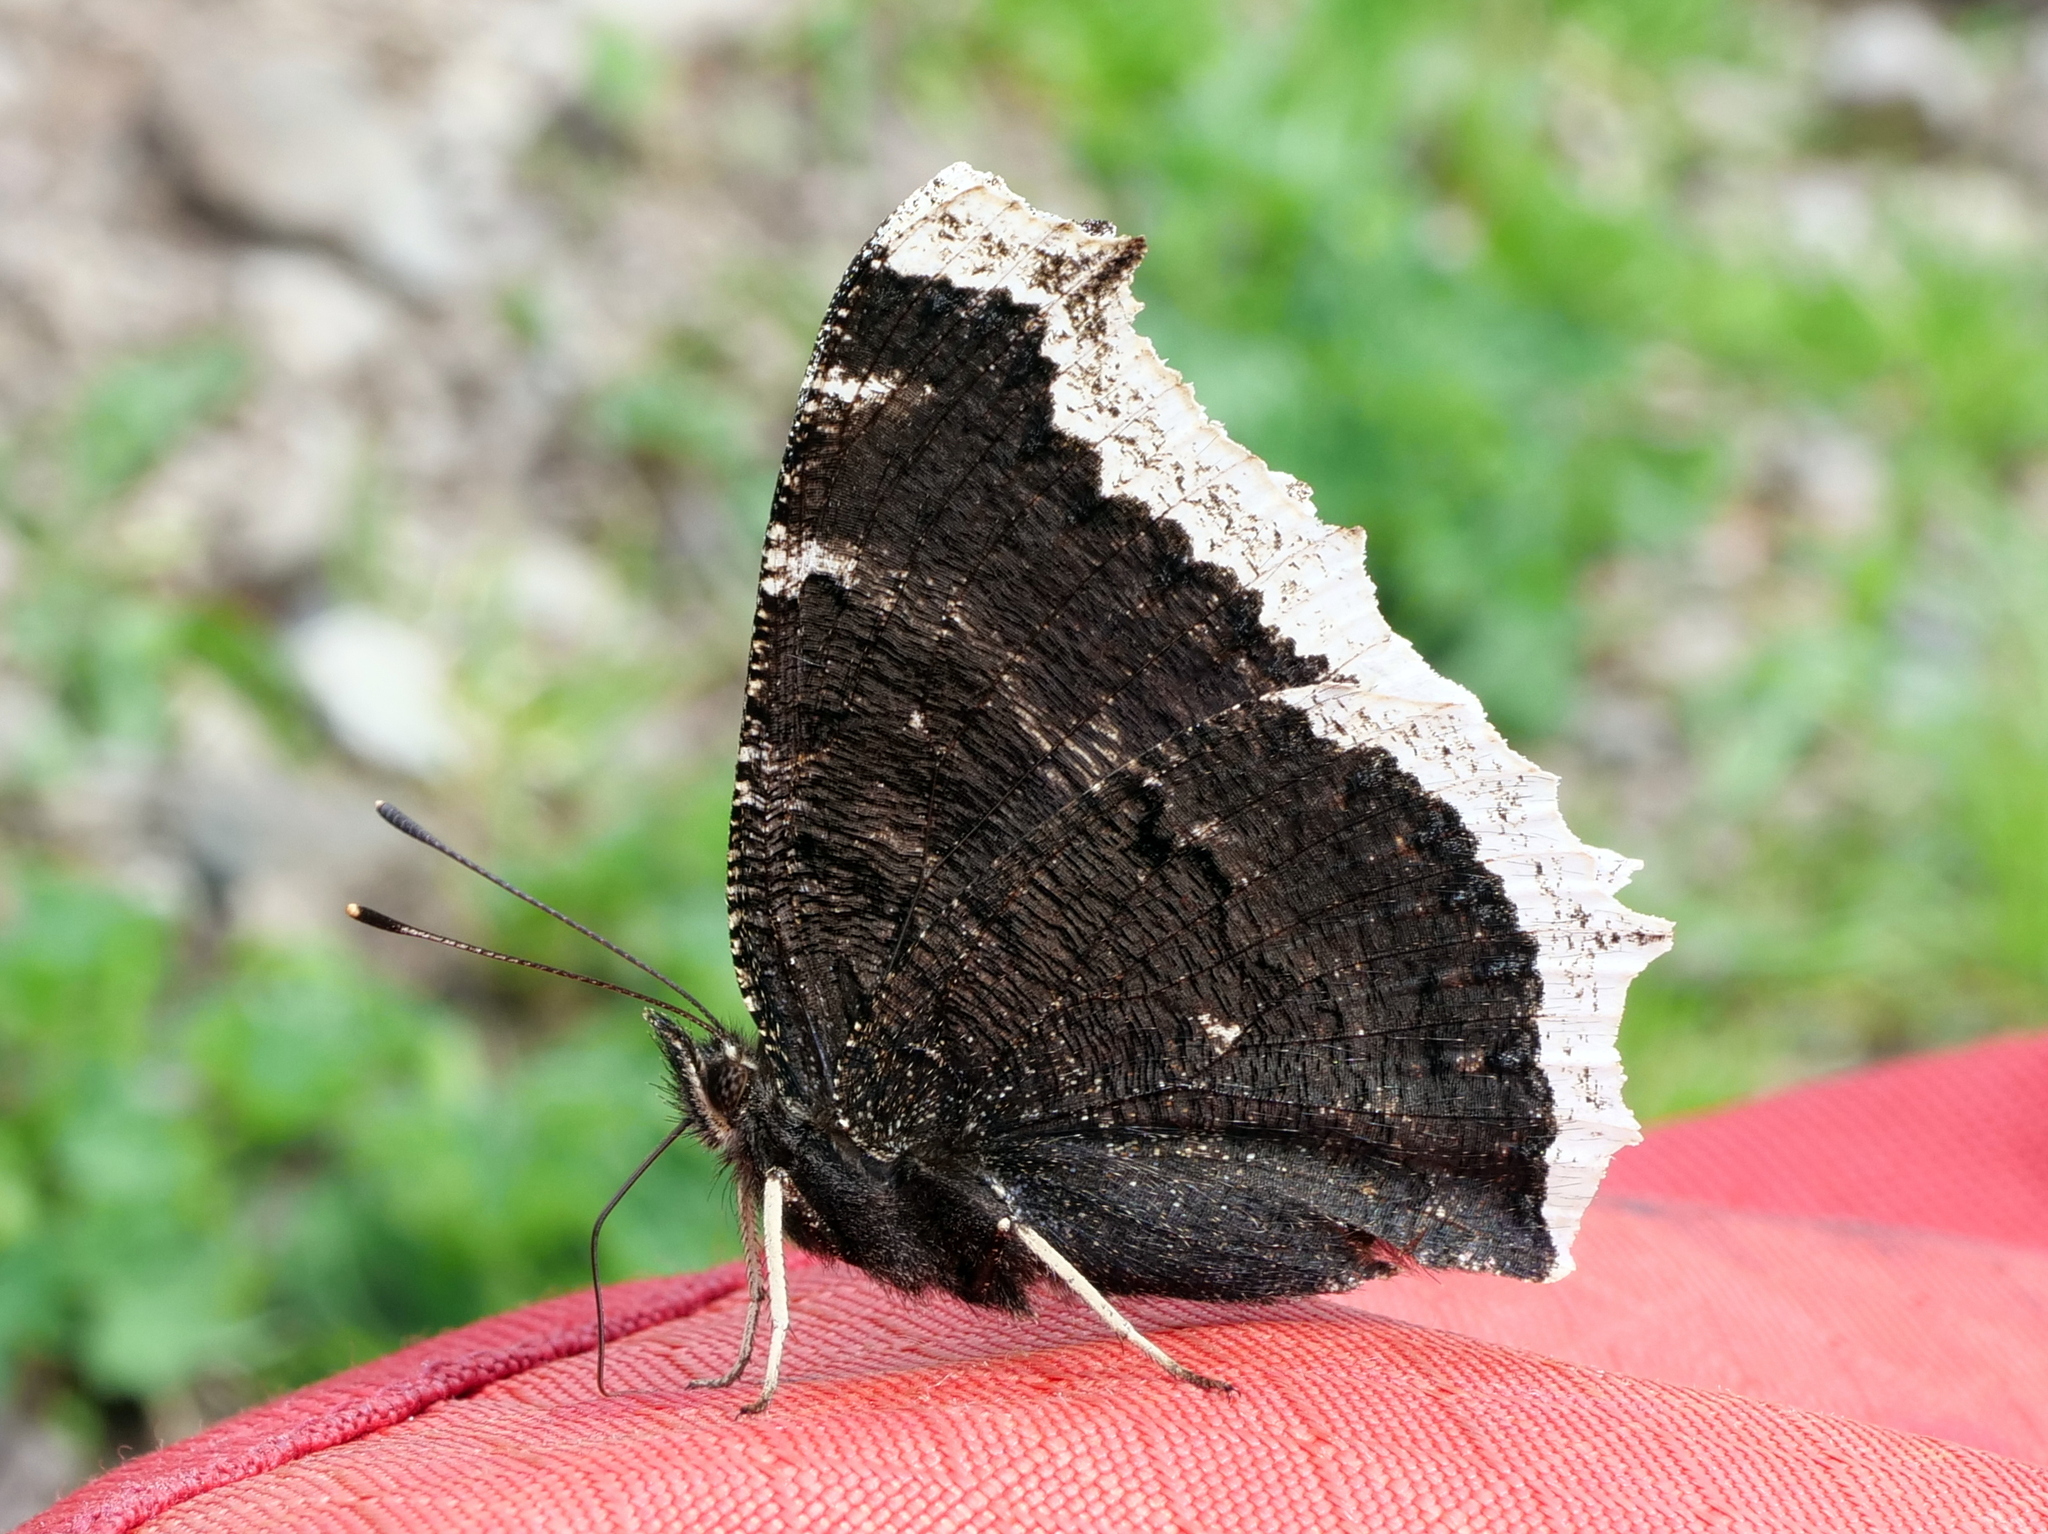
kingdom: Animalia
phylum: Arthropoda
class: Insecta
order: Lepidoptera
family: Nymphalidae
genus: Nymphalis
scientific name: Nymphalis antiopa
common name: Camberwell beauty
